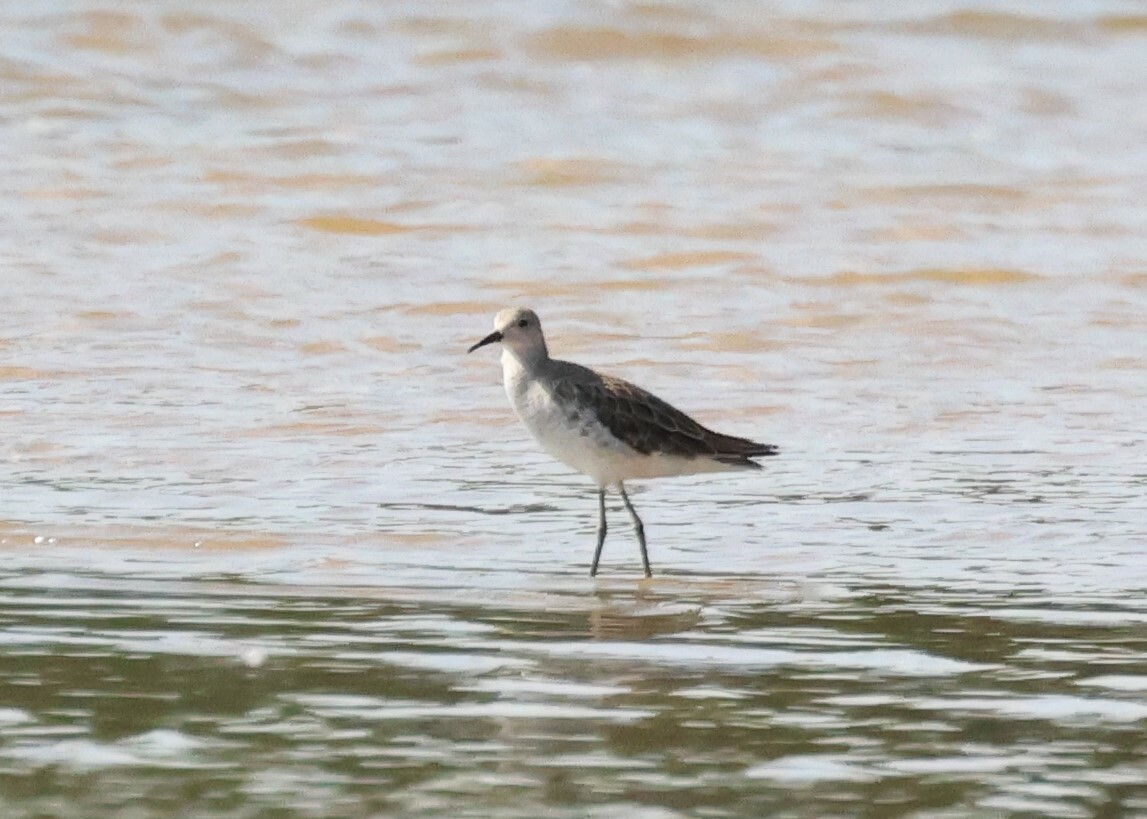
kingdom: Animalia
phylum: Chordata
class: Aves
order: Charadriiformes
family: Scolopacidae
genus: Calidris
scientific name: Calidris pugnax
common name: Ruff
